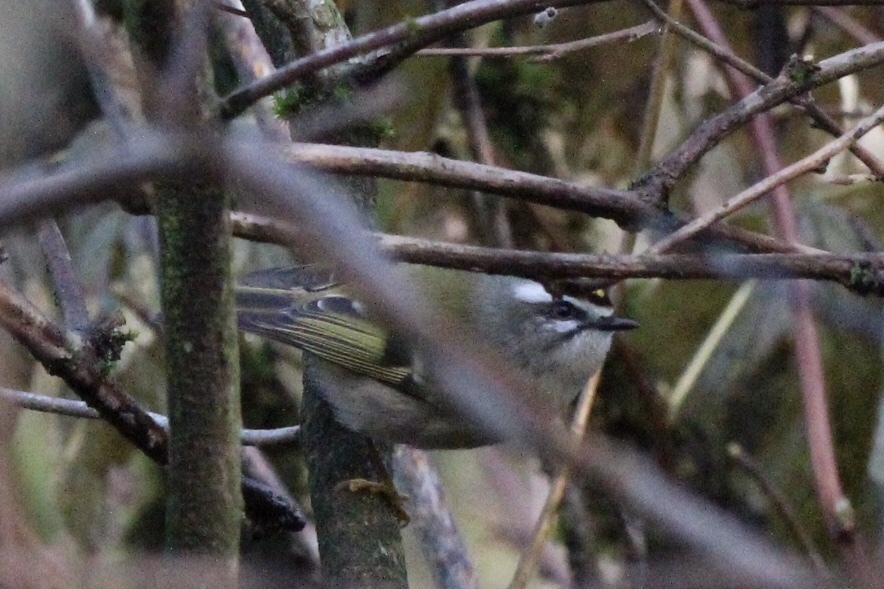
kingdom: Animalia
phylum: Chordata
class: Aves
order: Passeriformes
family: Regulidae
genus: Regulus
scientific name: Regulus satrapa
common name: Golden-crowned kinglet
